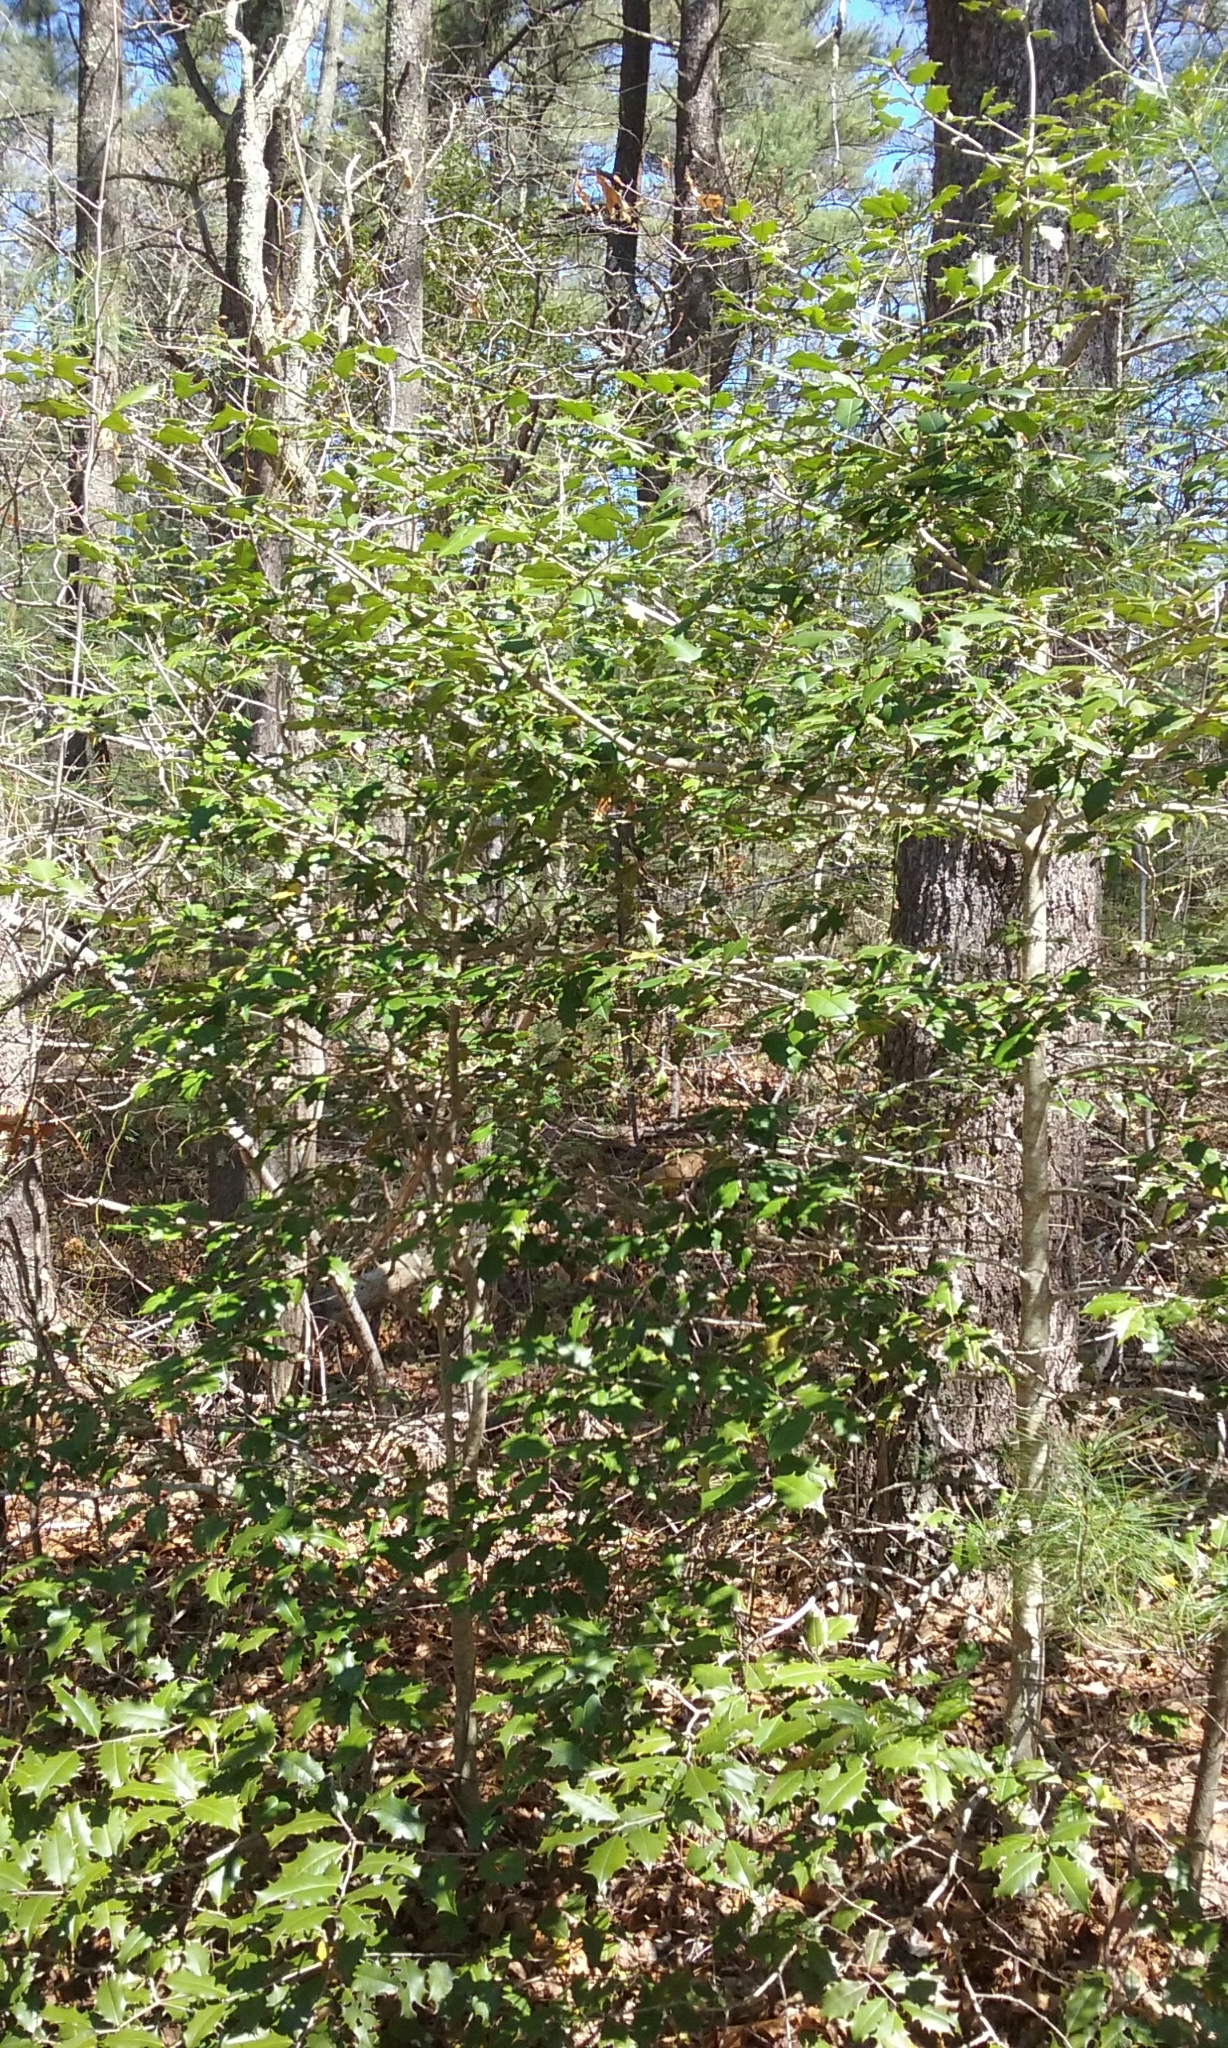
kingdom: Plantae
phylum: Tracheophyta
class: Magnoliopsida
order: Aquifoliales
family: Aquifoliaceae
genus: Ilex
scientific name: Ilex opaca
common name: American holly
